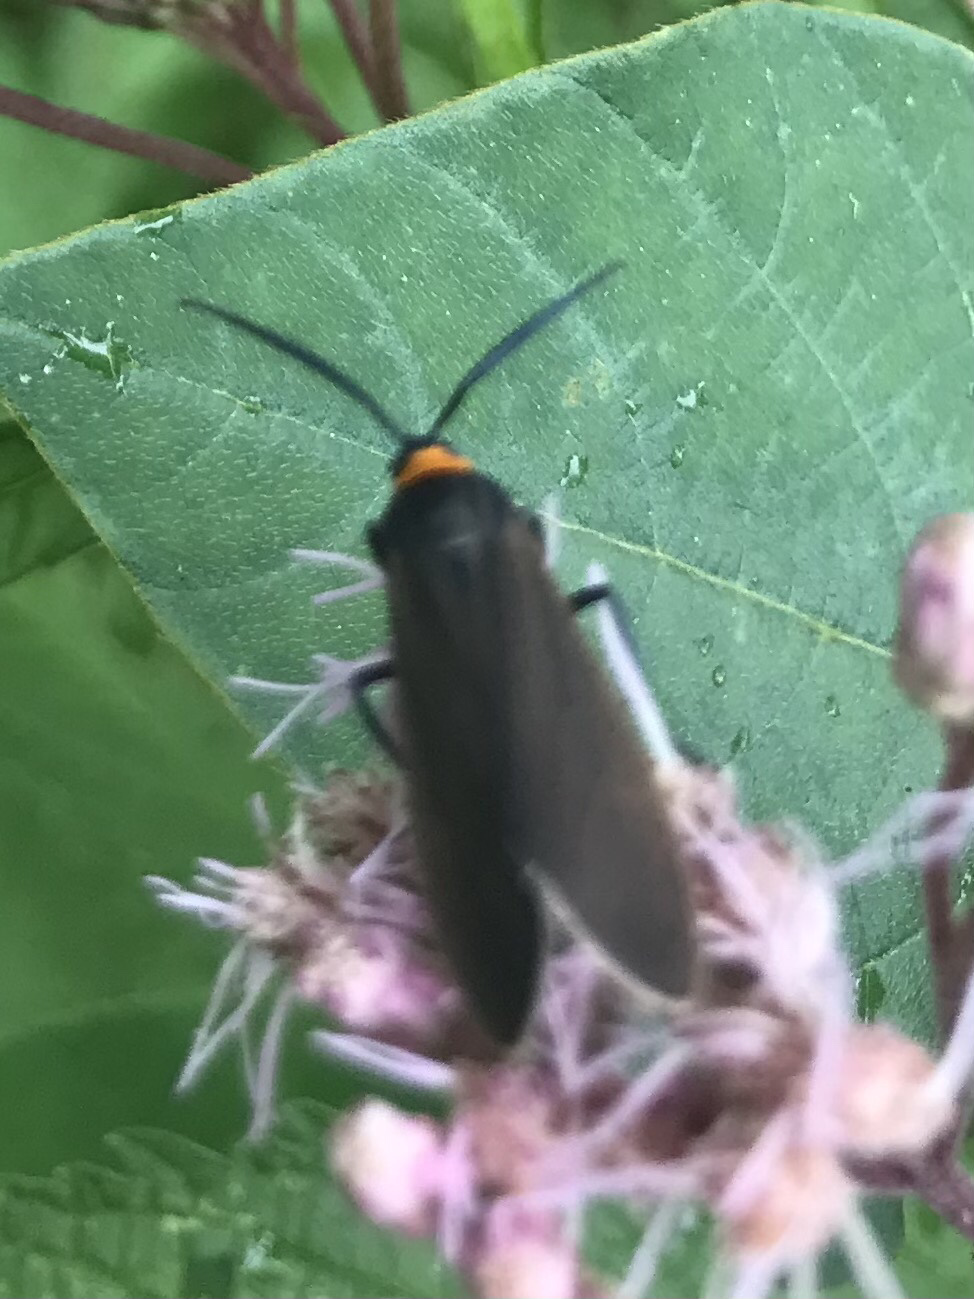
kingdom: Animalia
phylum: Arthropoda
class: Insecta
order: Lepidoptera
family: Erebidae
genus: Cisseps
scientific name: Cisseps fulvicollis
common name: Yellow-collared scape moth
